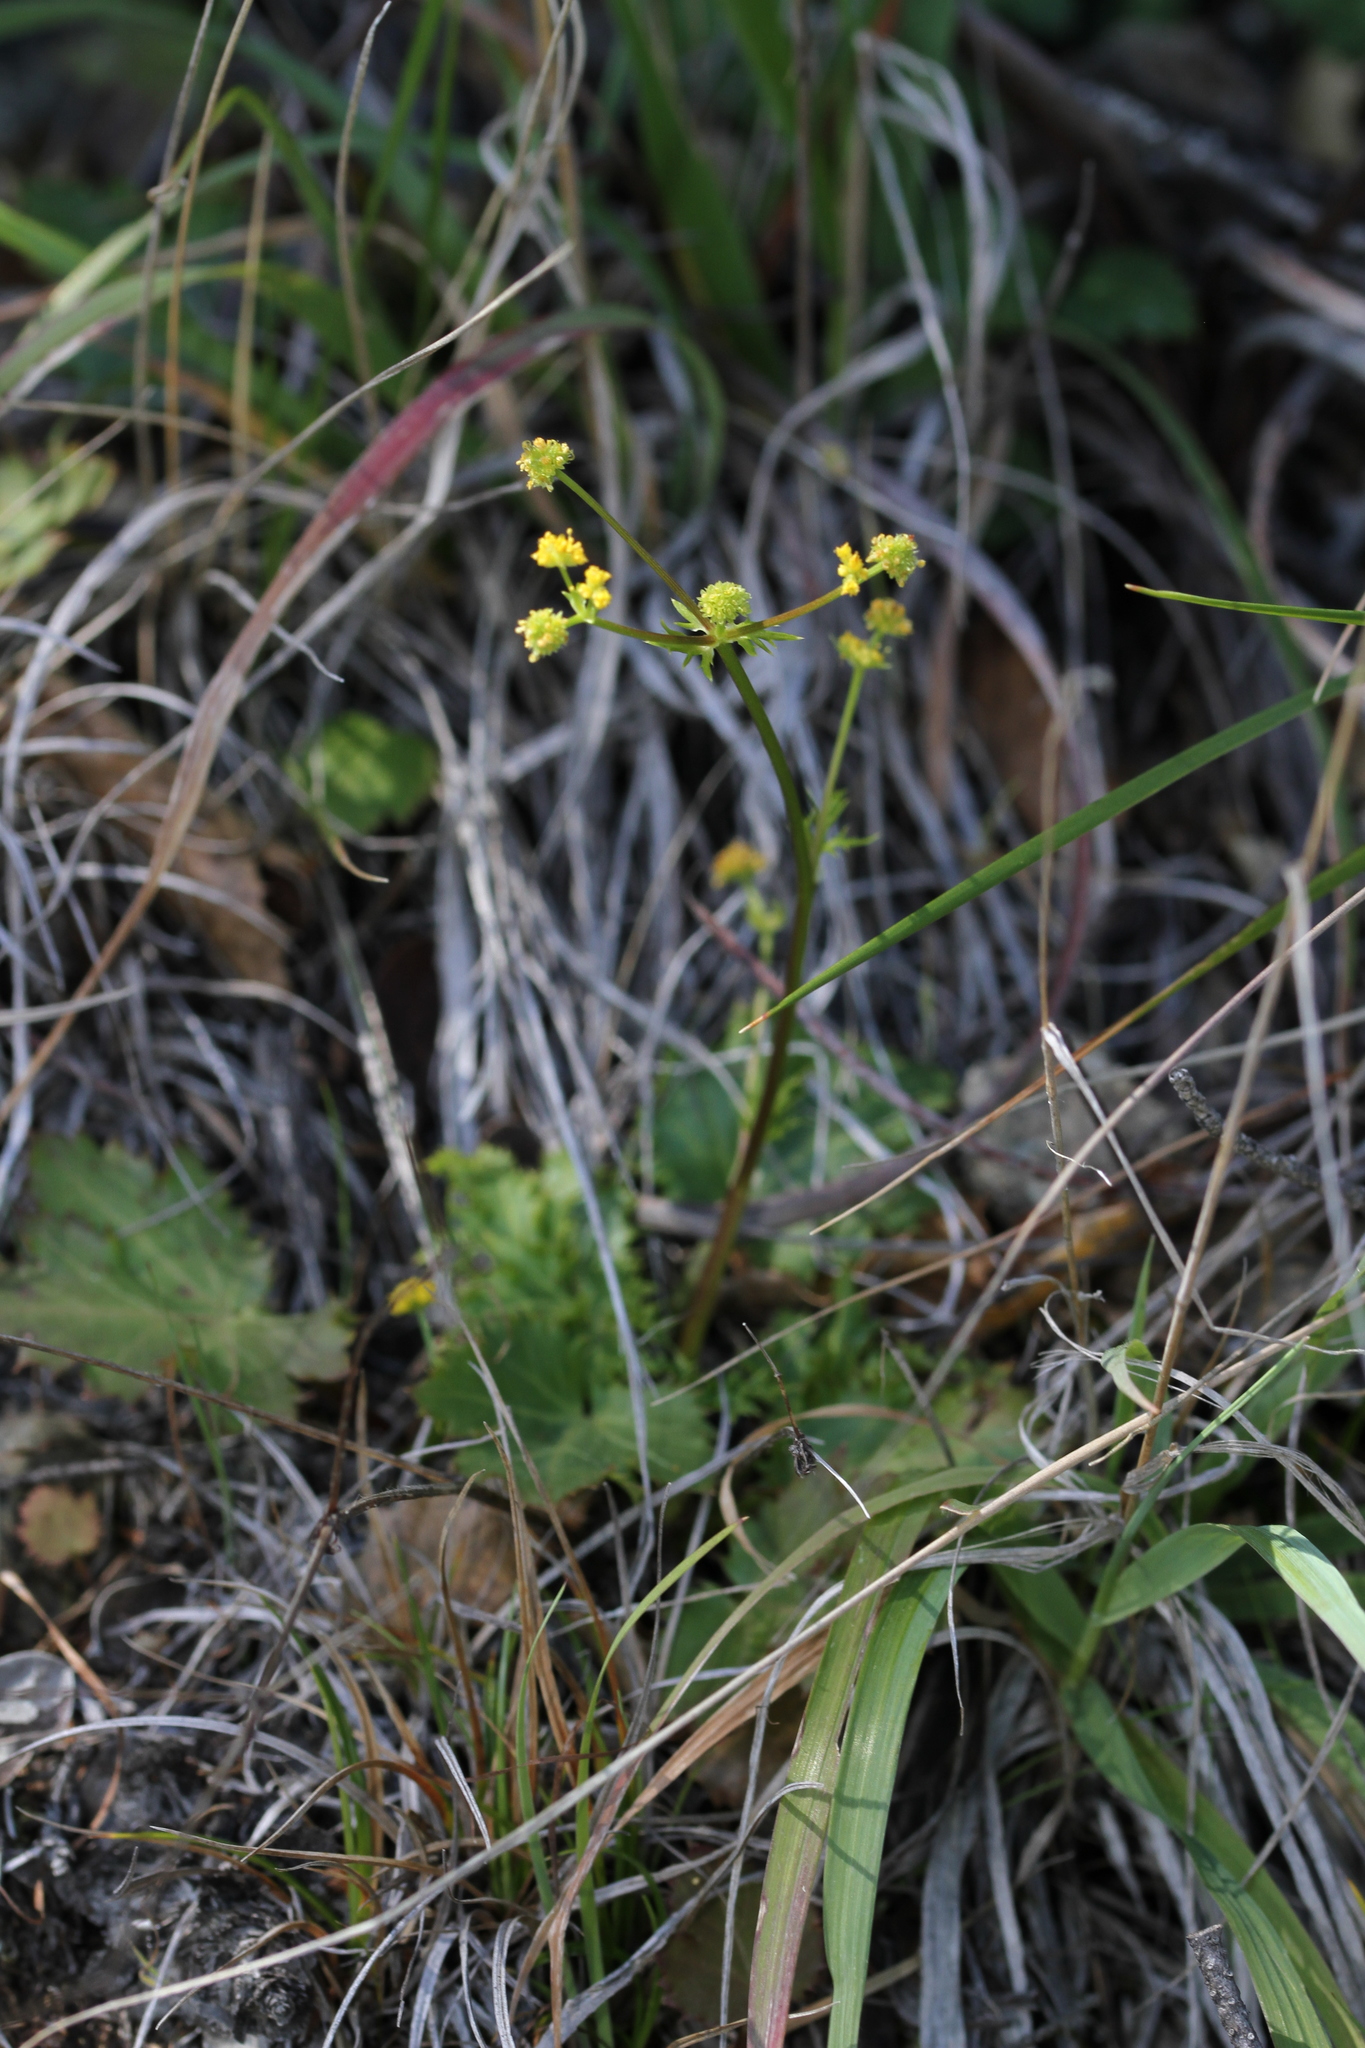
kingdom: Plantae
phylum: Tracheophyta
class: Magnoliopsida
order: Apiales
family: Apiaceae
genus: Sanicula
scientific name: Sanicula laciniata
